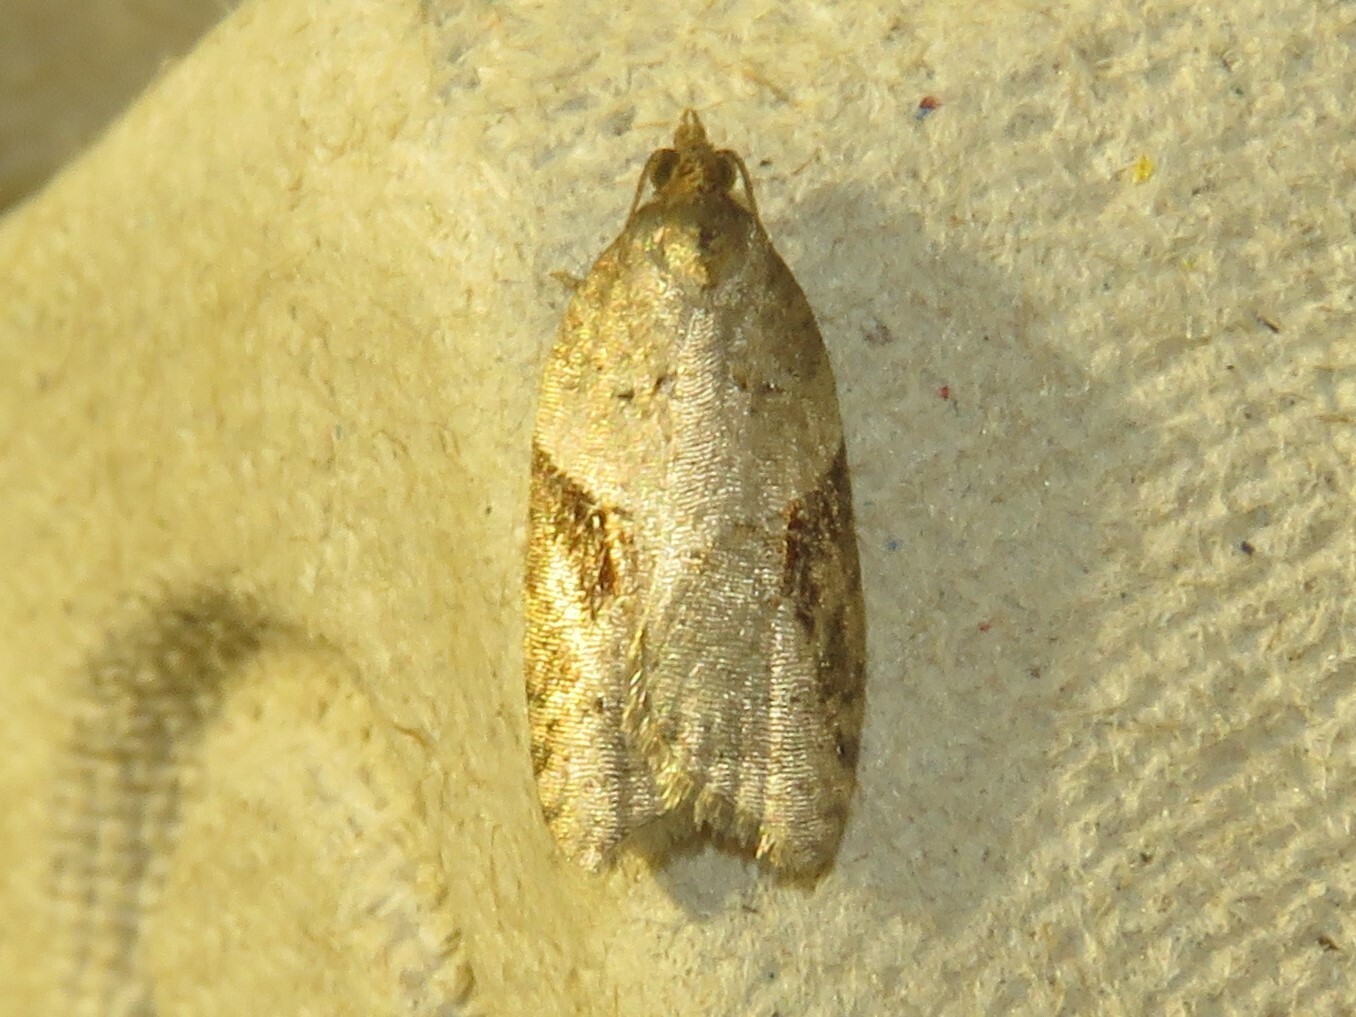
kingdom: Animalia
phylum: Arthropoda
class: Insecta
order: Lepidoptera
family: Tortricidae
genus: Acleris
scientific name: Acleris macdunnoughi
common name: Macdunnough's acleris
